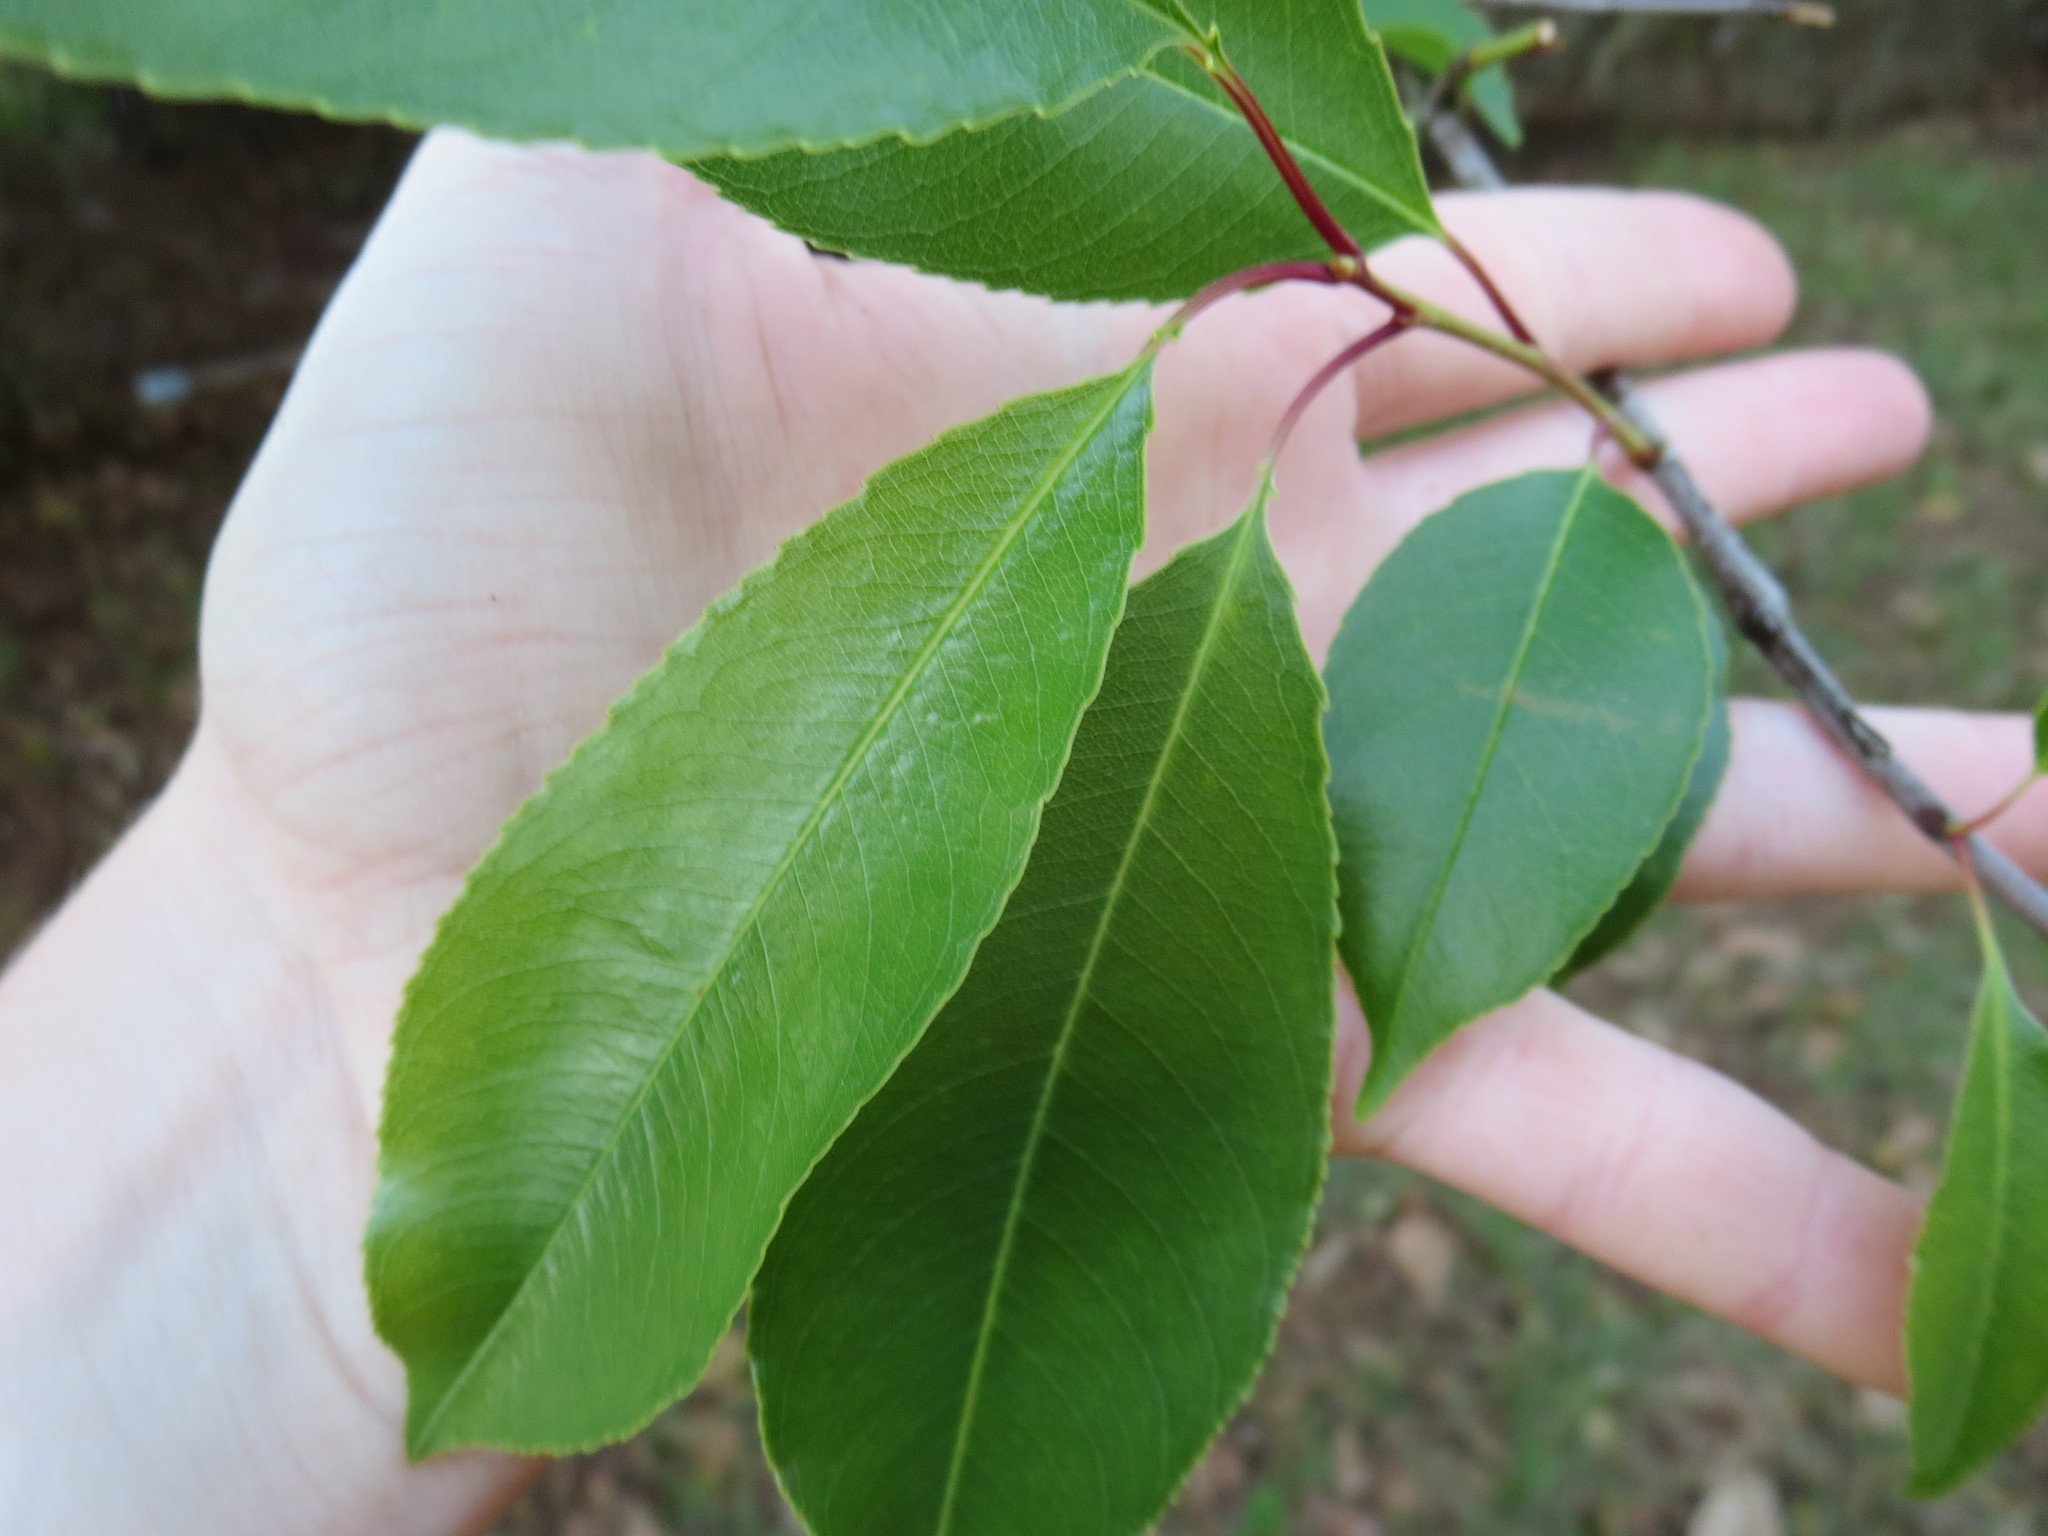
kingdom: Plantae
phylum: Tracheophyta
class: Magnoliopsida
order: Rosales
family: Rosaceae
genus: Prunus
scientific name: Prunus serotina
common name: Black cherry
